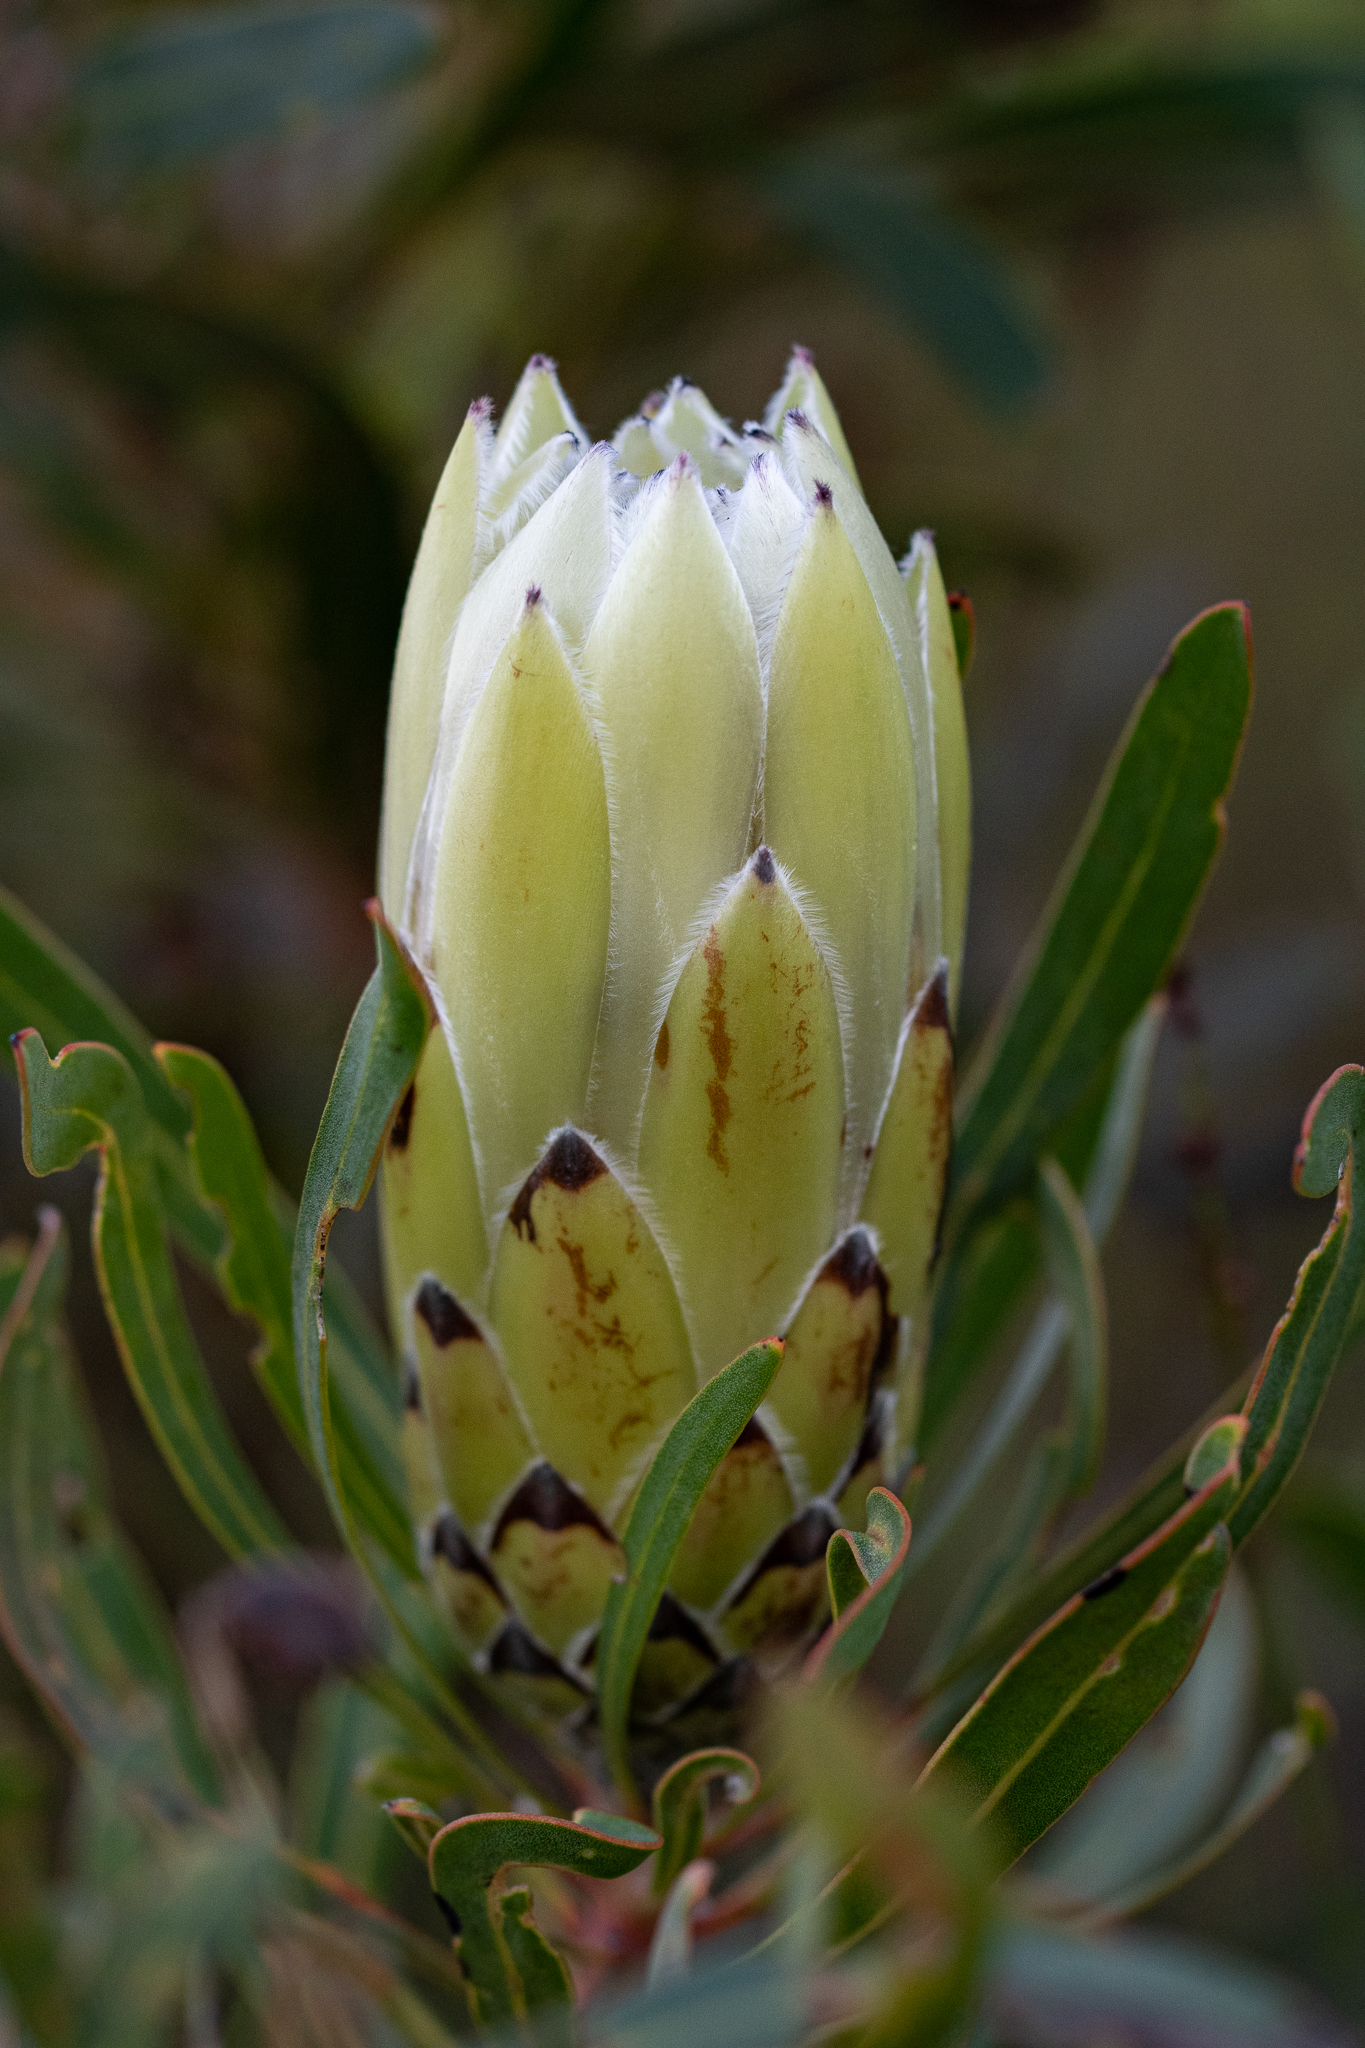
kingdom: Plantae
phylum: Tracheophyta
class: Magnoliopsida
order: Proteales
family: Proteaceae
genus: Protea
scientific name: Protea
